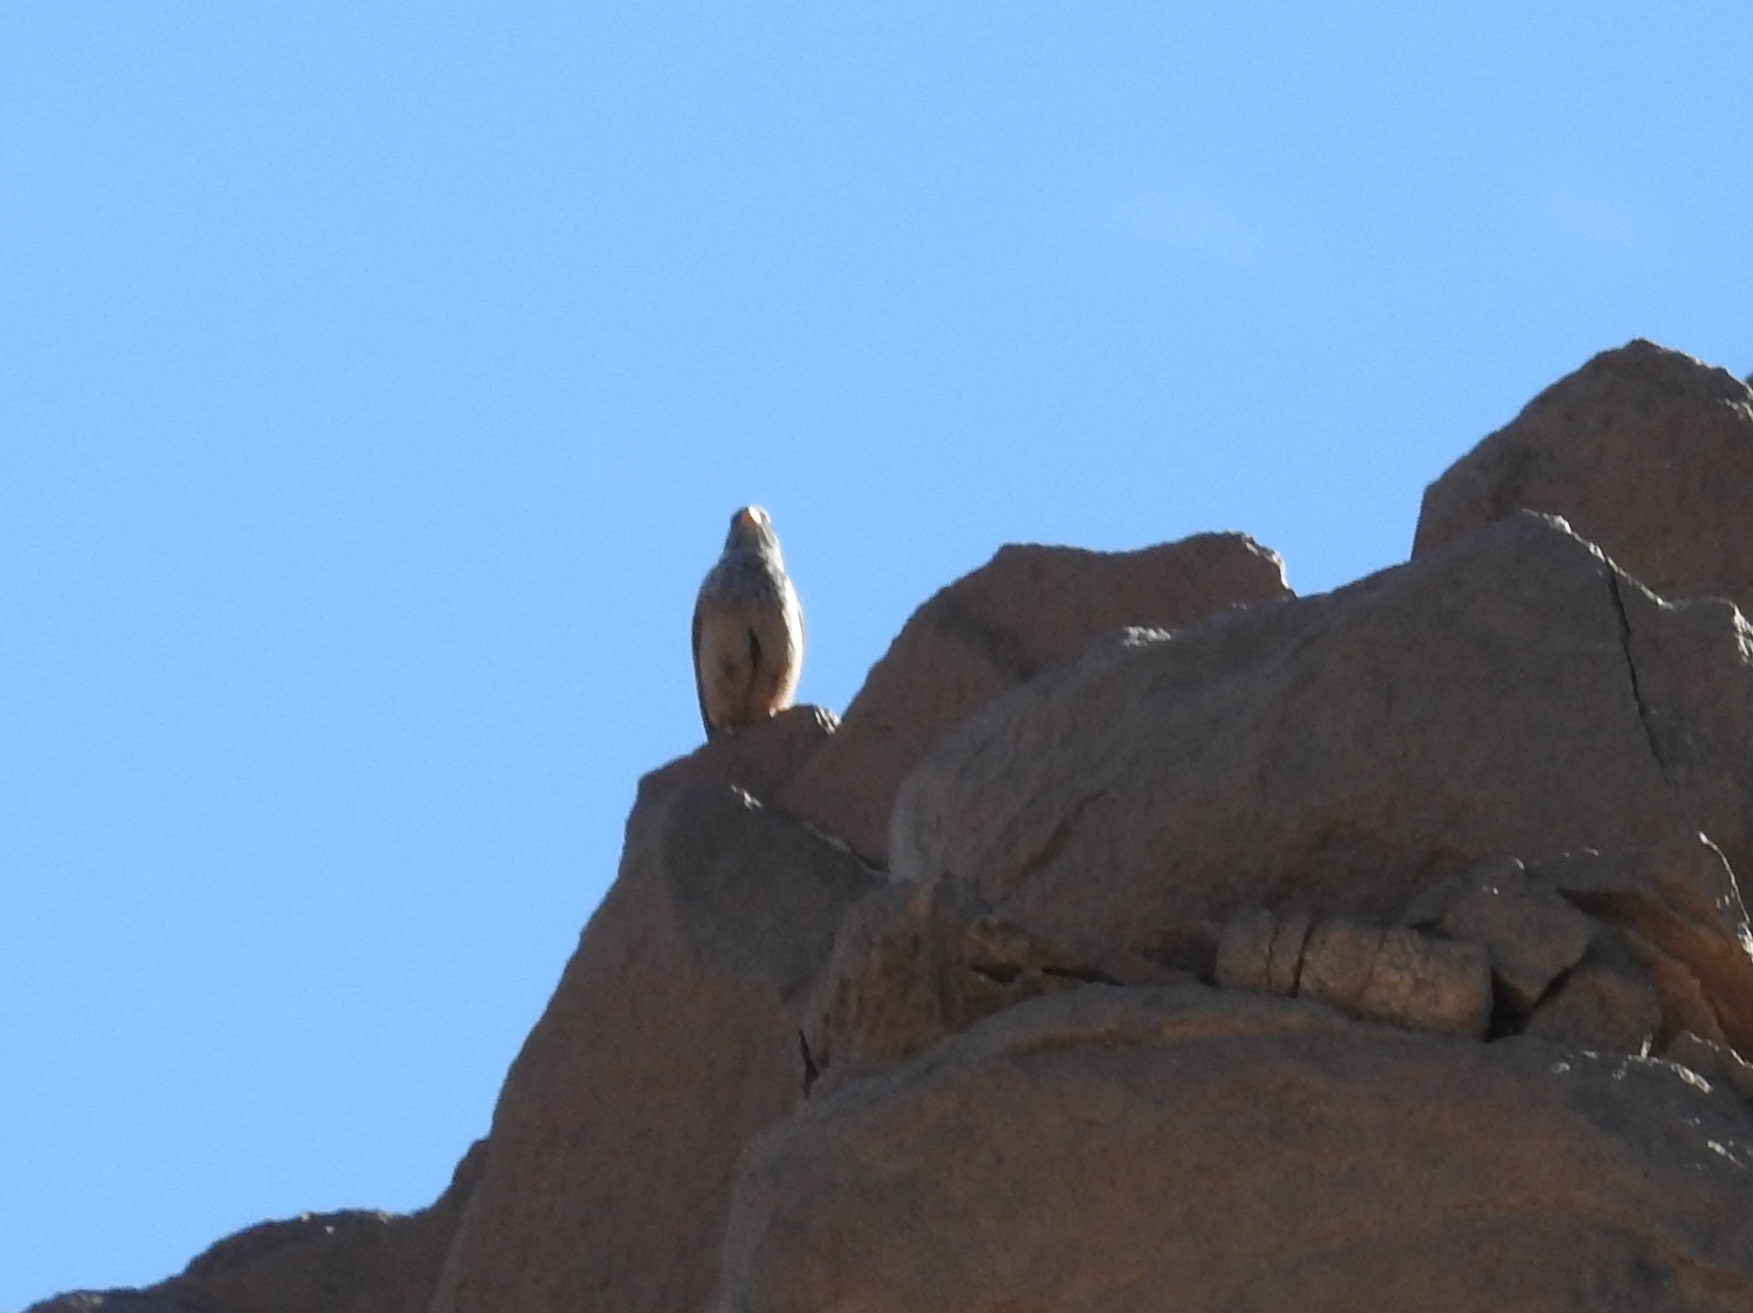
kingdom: Animalia
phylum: Chordata
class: Aves
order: Passeriformes
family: Emberizidae
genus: Emberiza
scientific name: Emberiza sahari
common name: House bunting
